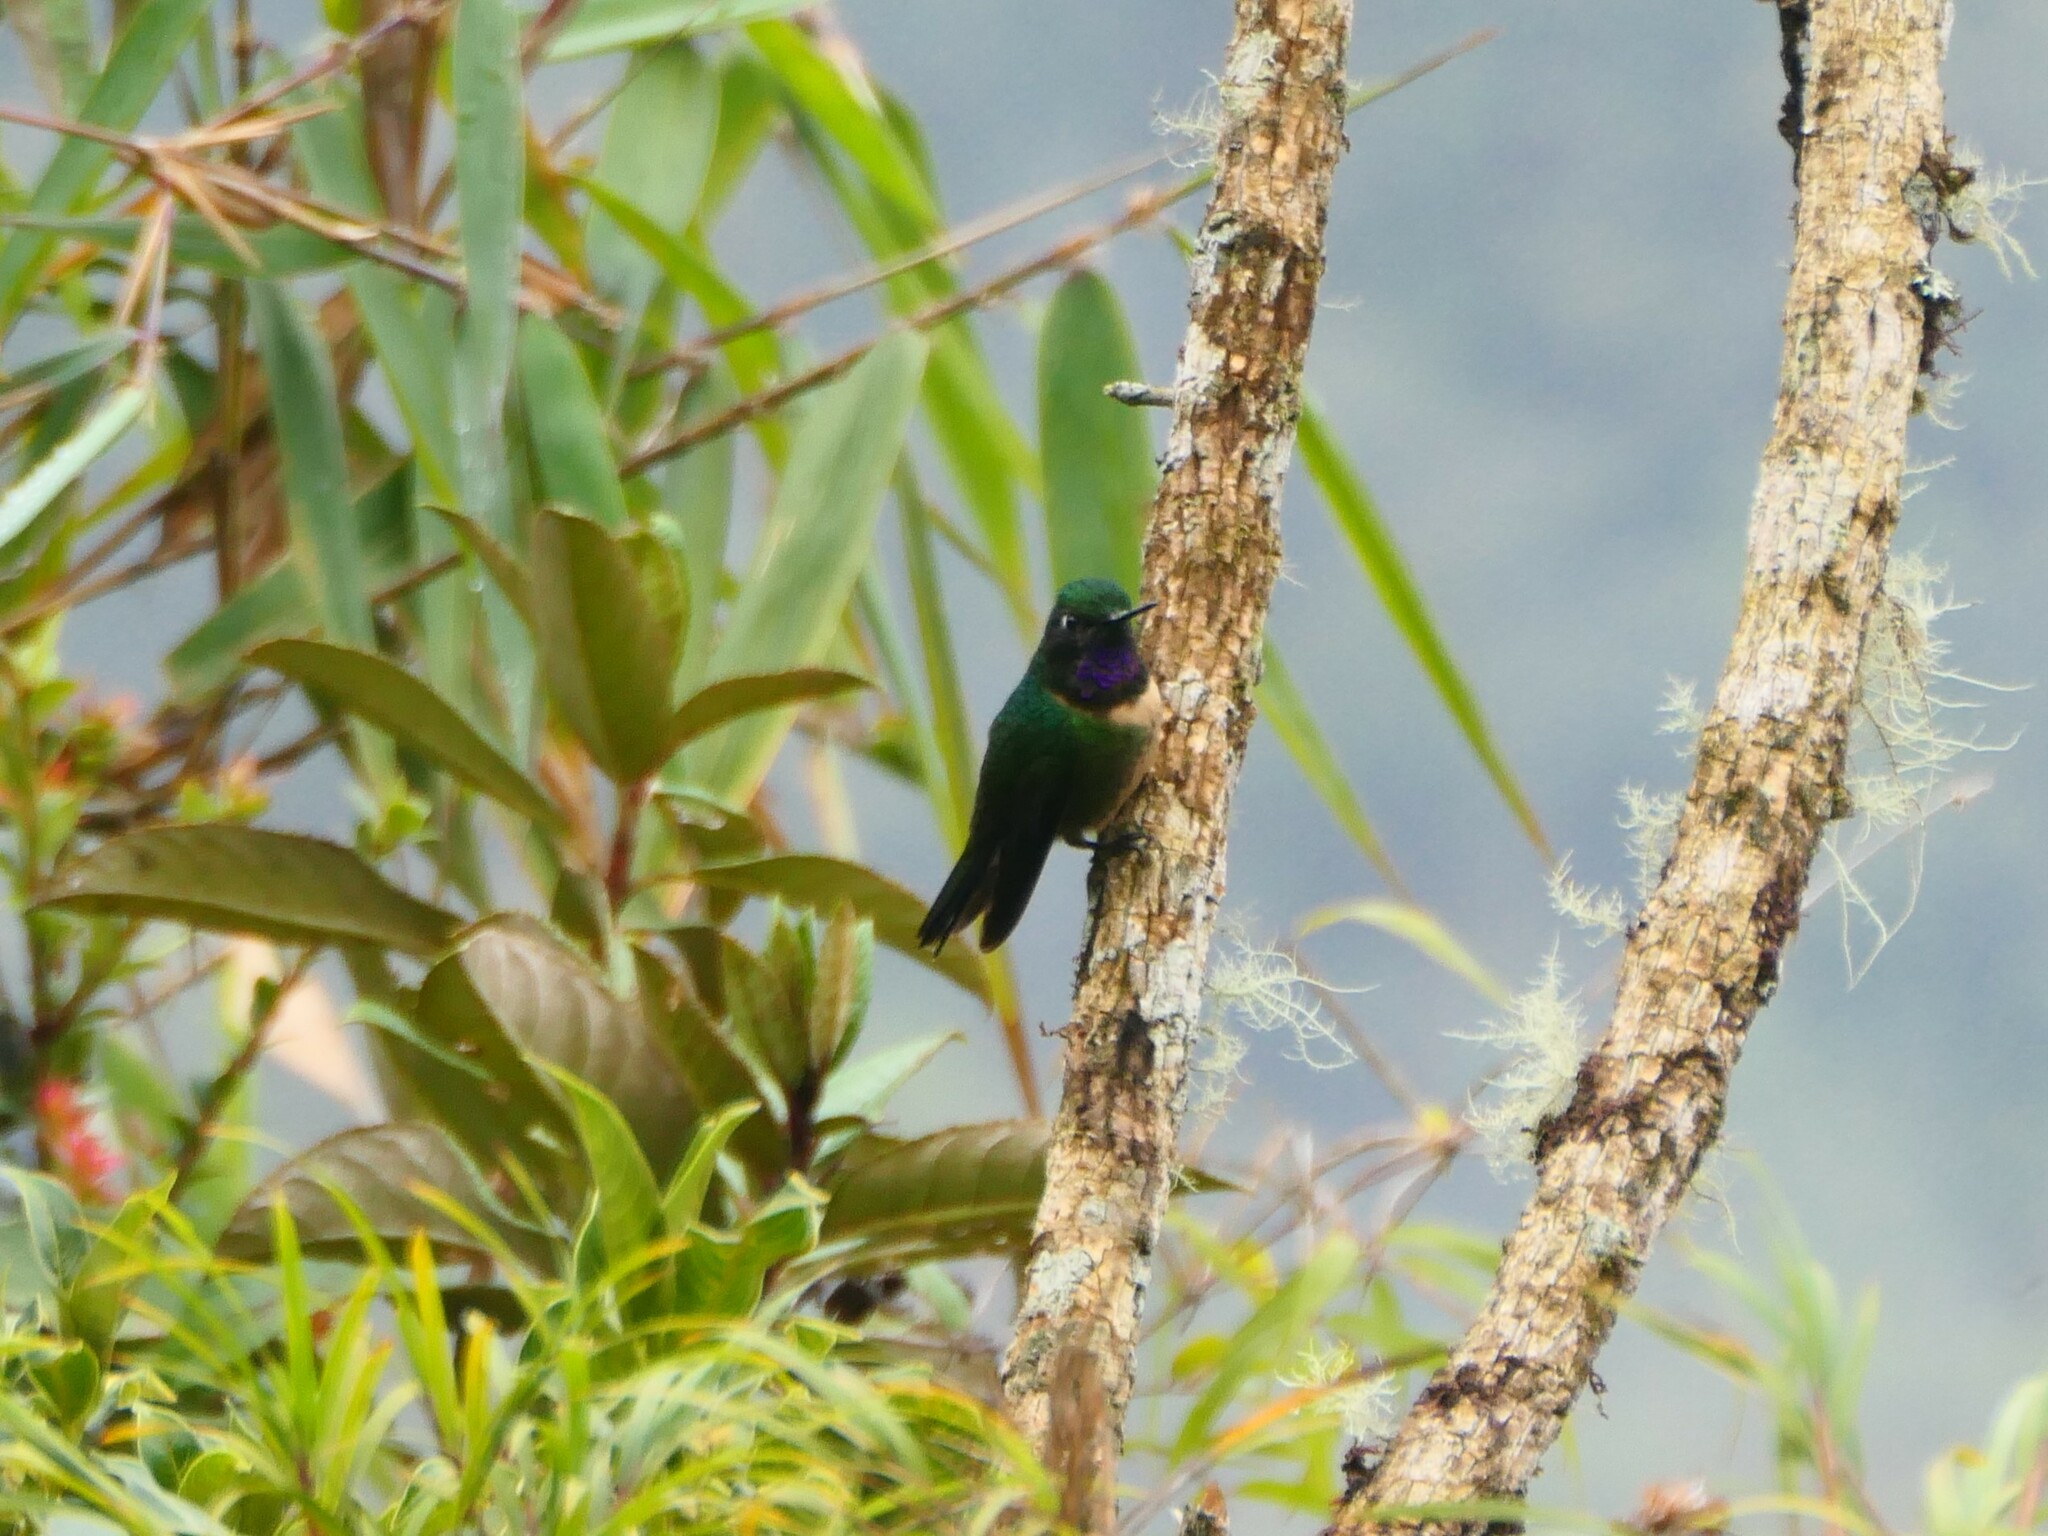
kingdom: Animalia
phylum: Chordata
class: Aves
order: Apodiformes
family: Trochilidae
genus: Heliangelus
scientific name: Heliangelus amethysticollis
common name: Amethyst-throated sunangel
